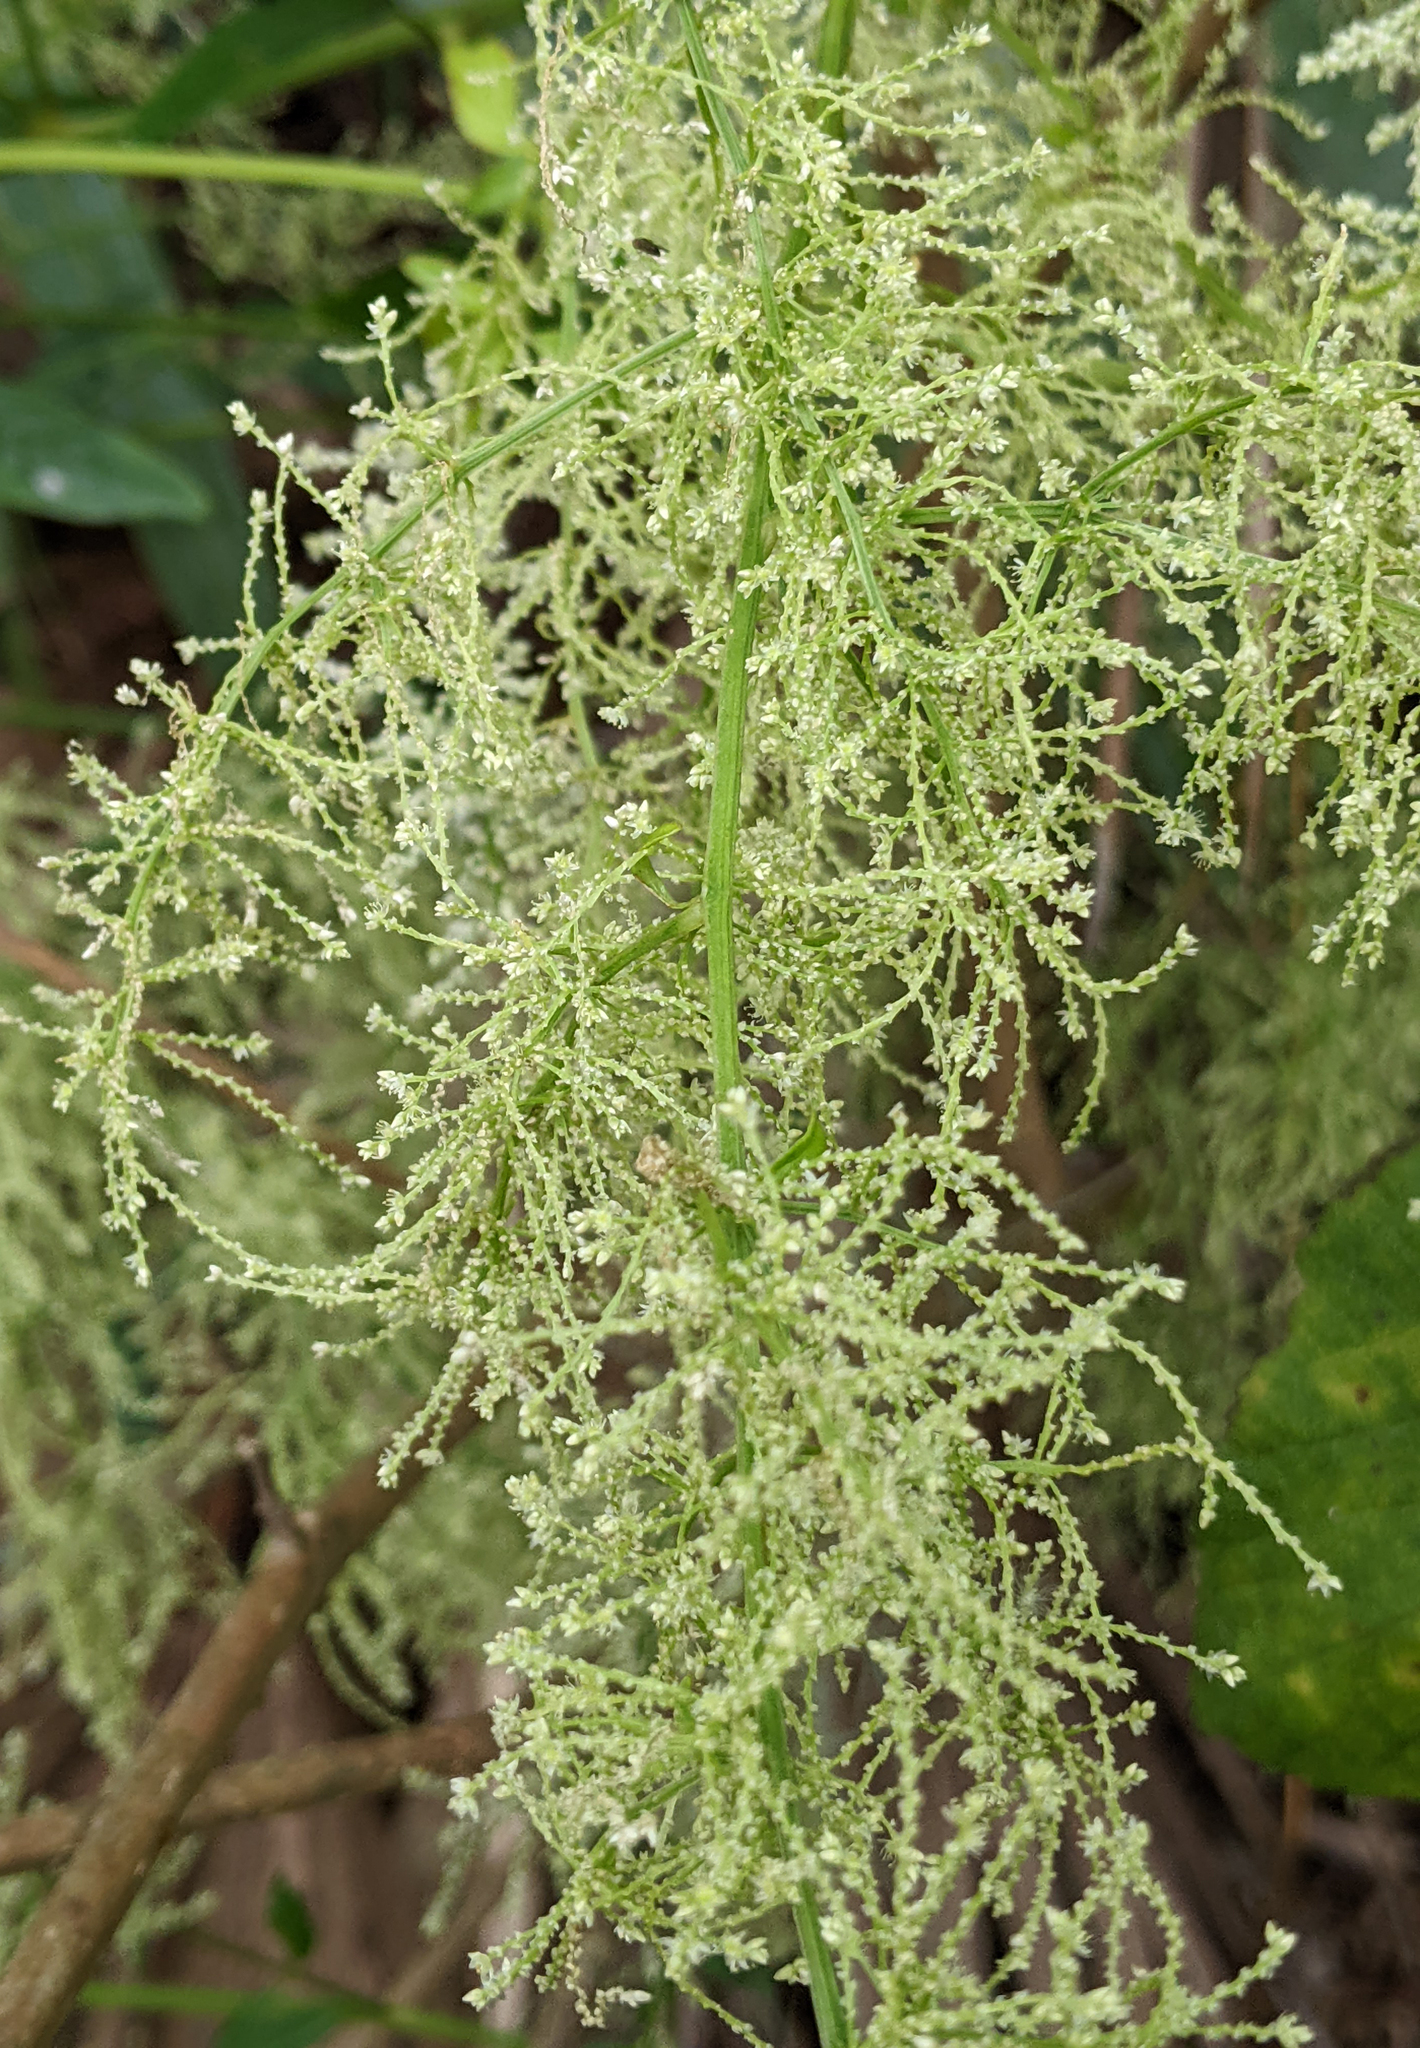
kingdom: Plantae
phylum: Tracheophyta
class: Magnoliopsida
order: Caryophyllales
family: Amaranthaceae
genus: Iresine
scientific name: Iresine diffusa
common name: Juba's-bush
